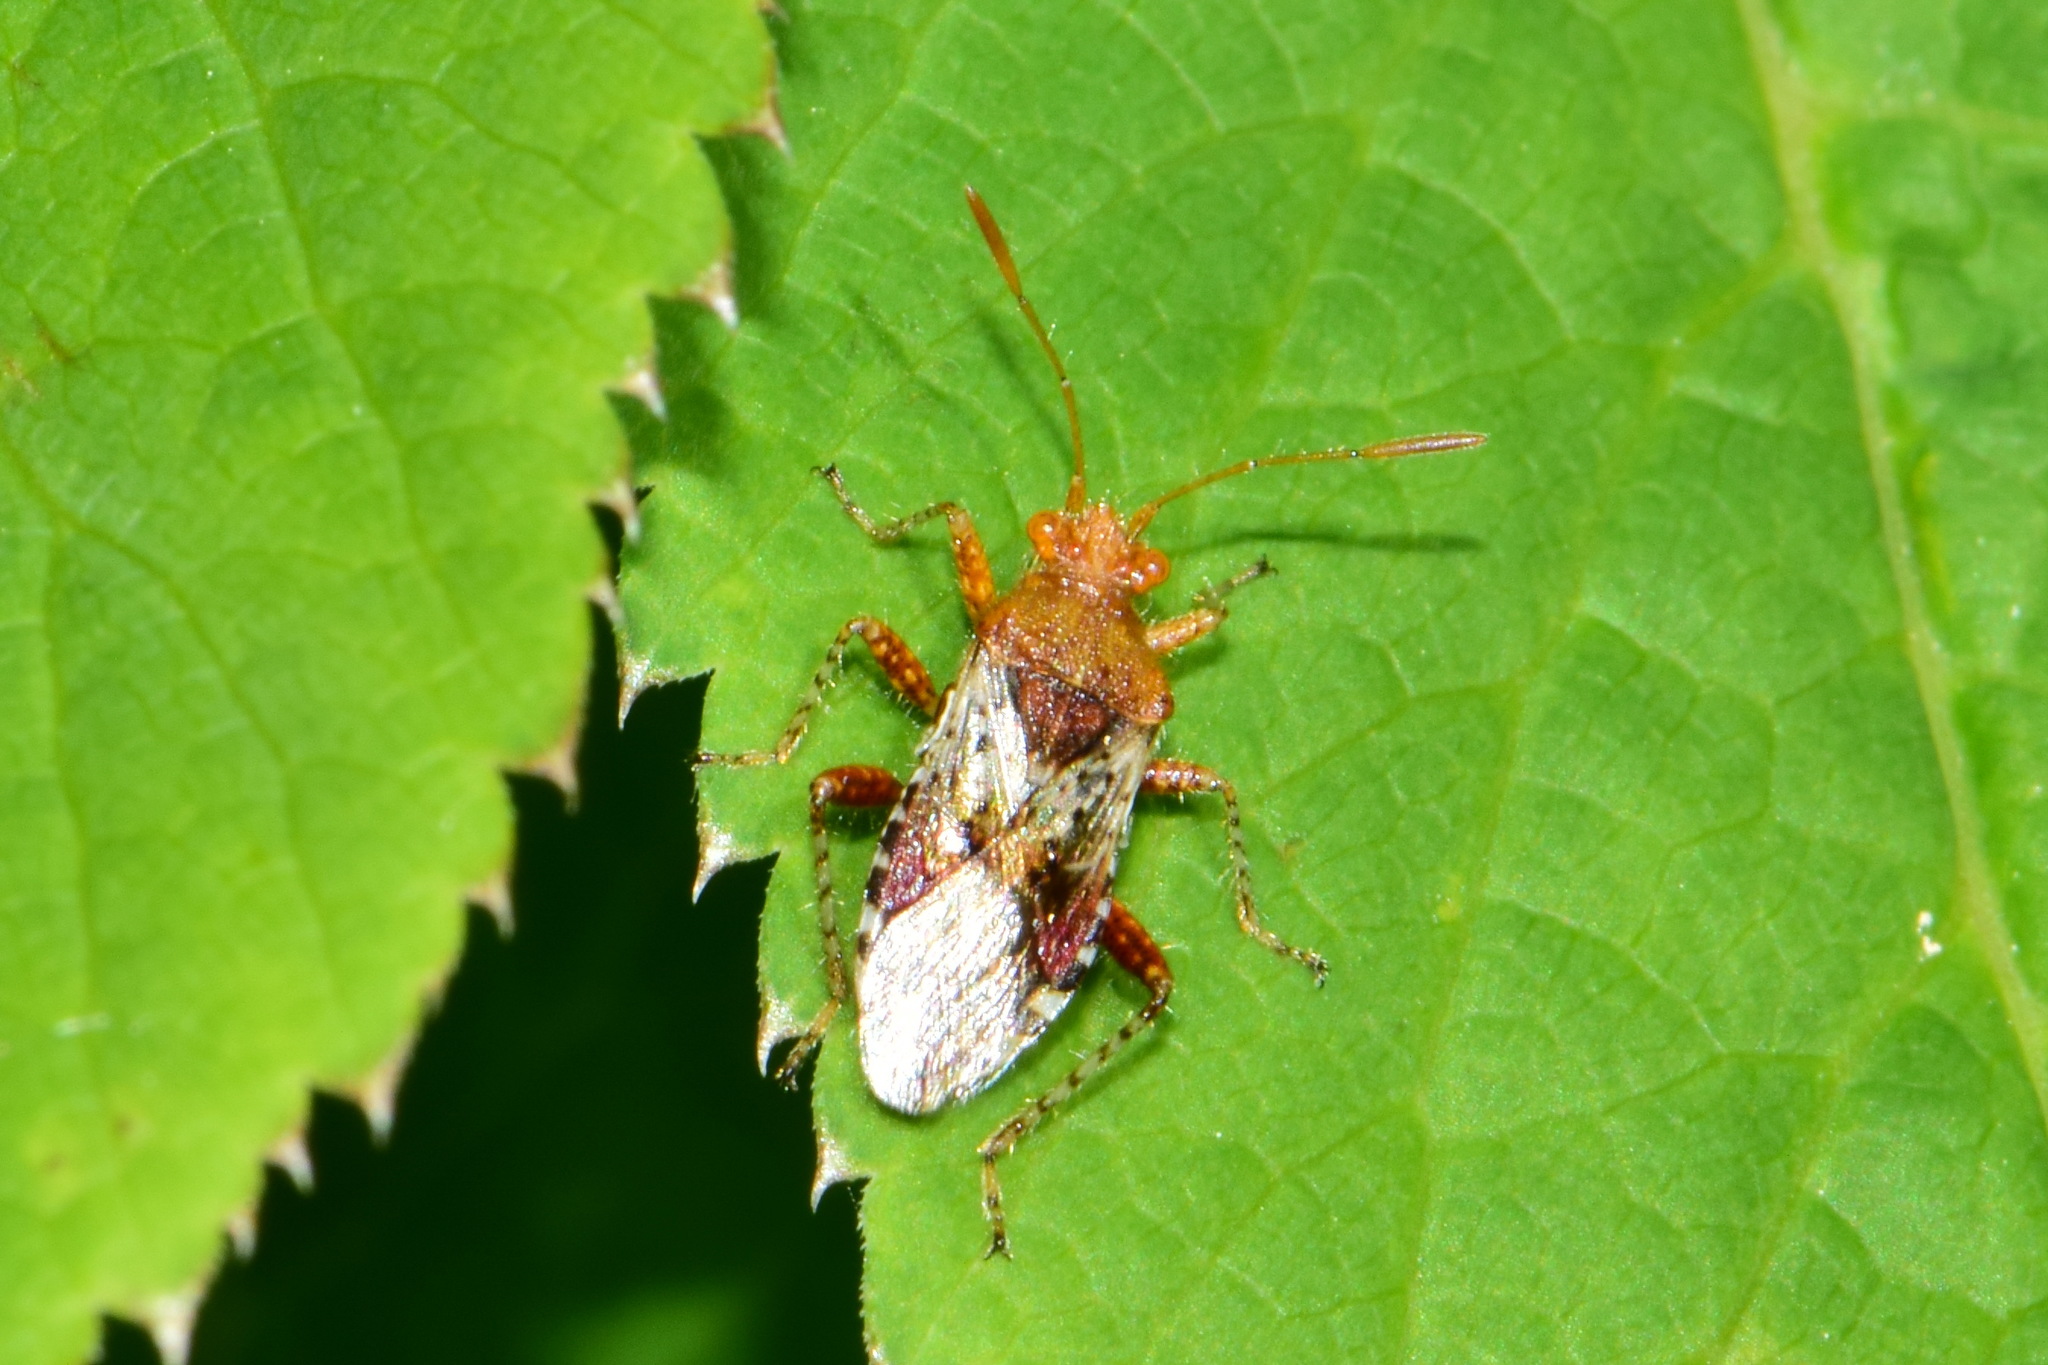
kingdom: Animalia
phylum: Arthropoda
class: Insecta
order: Hemiptera
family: Rhopalidae
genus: Rhopalus
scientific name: Rhopalus subrufus
